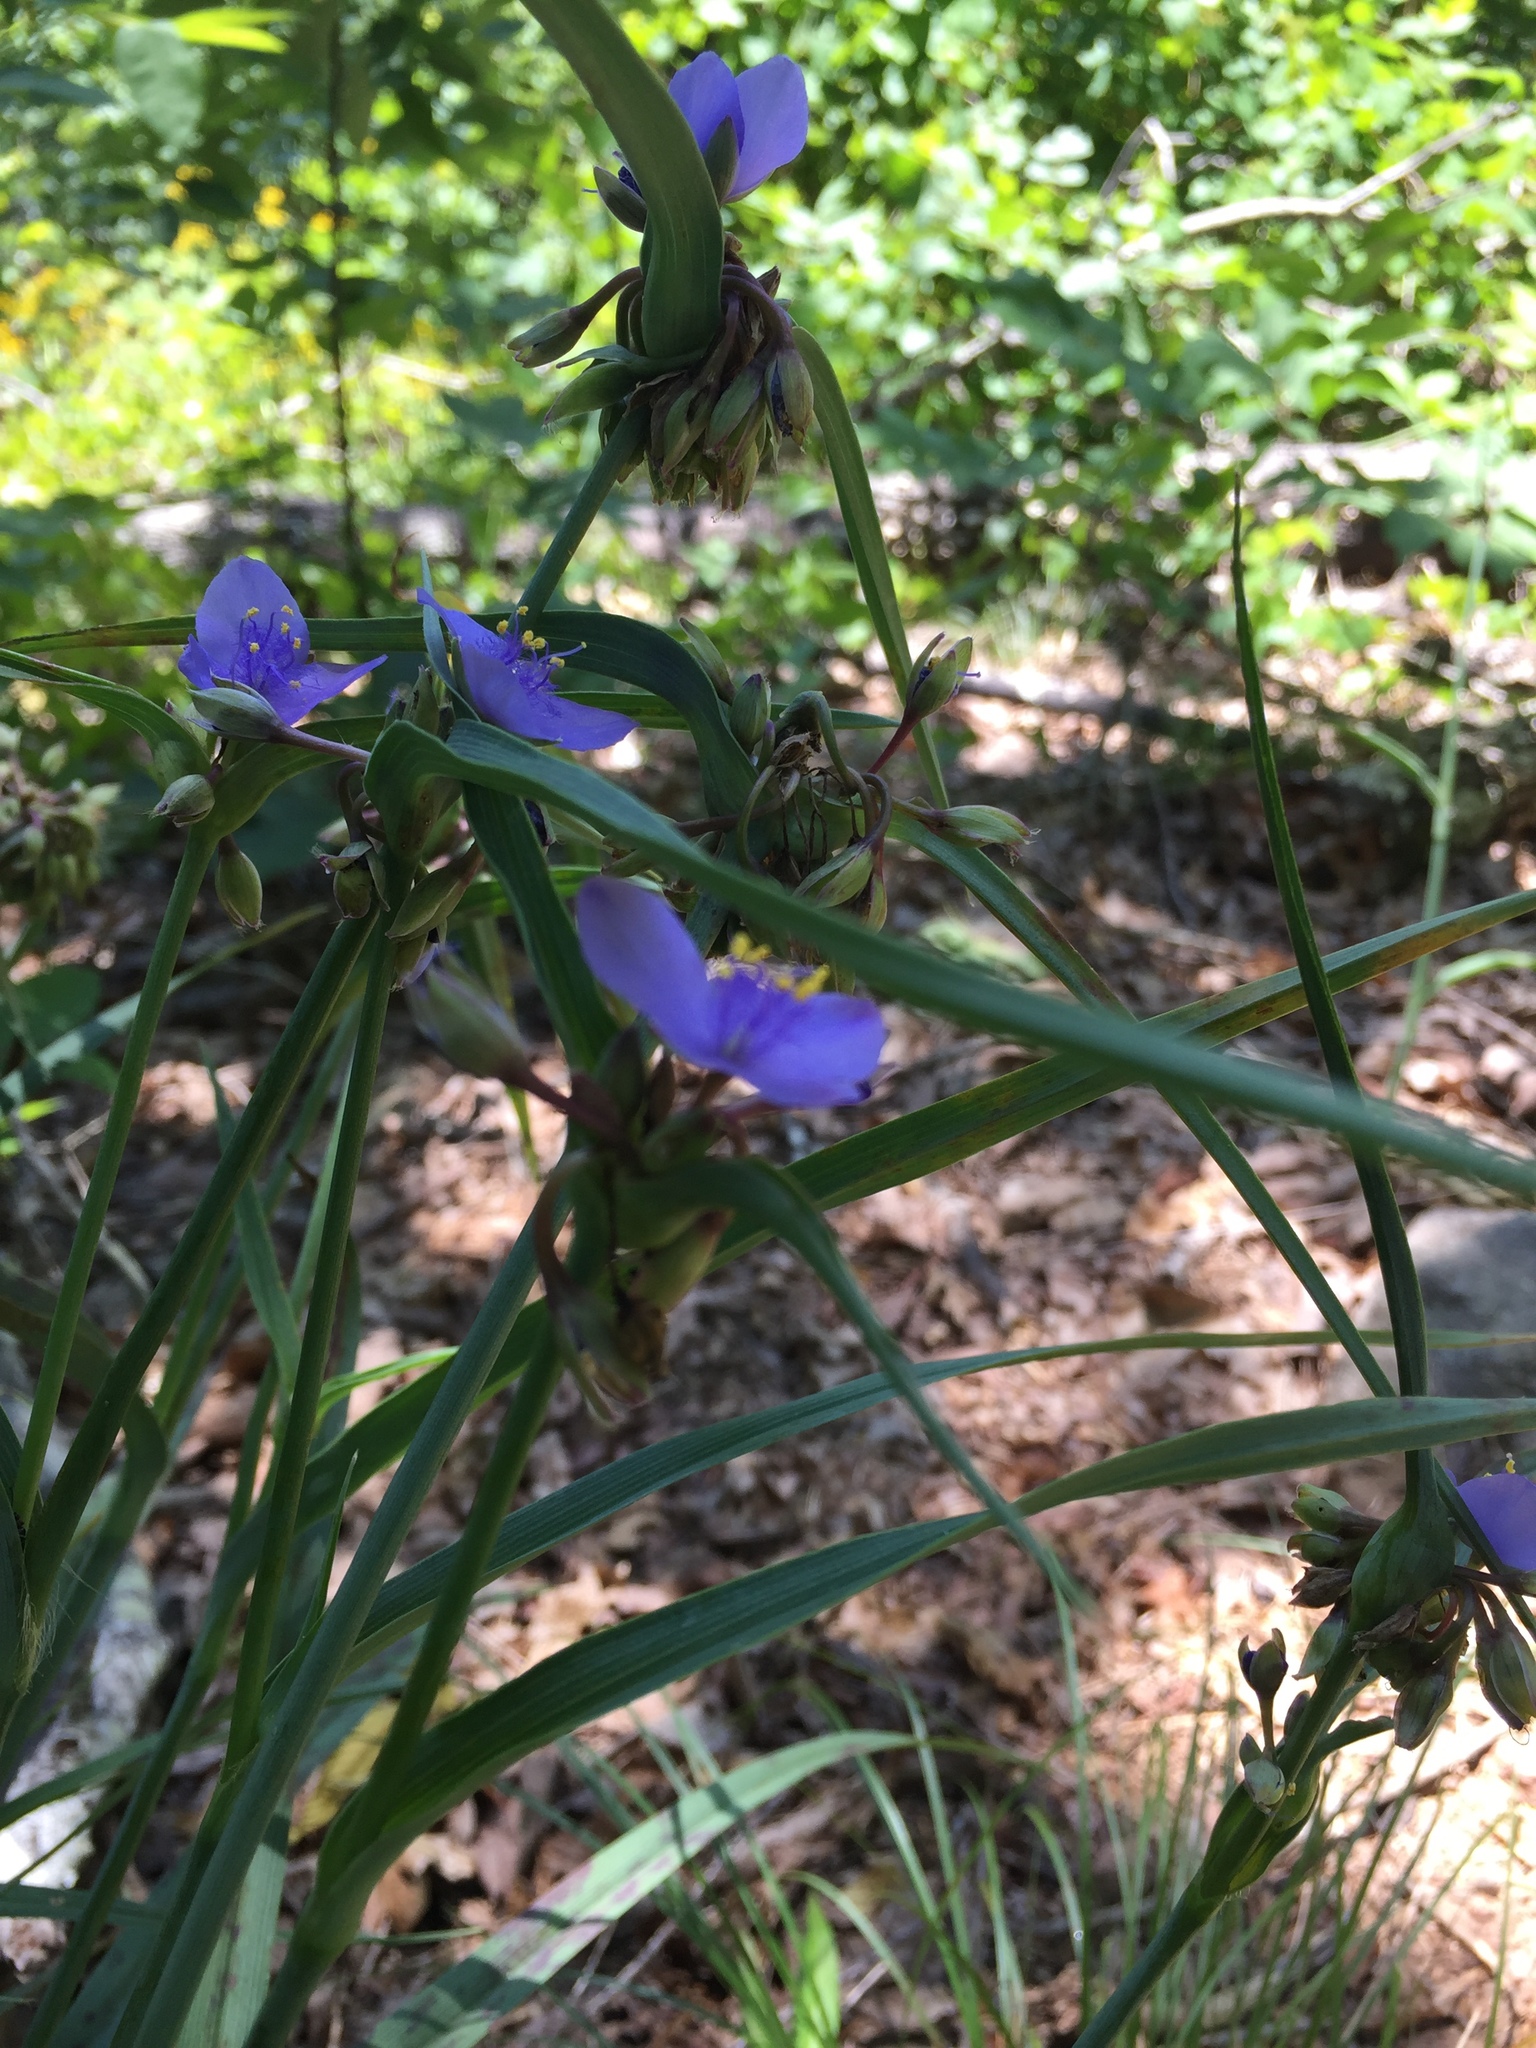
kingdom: Plantae
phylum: Tracheophyta
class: Liliopsida
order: Commelinales
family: Commelinaceae
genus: Tradescantia
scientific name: Tradescantia virginiana
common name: Spiderwort
